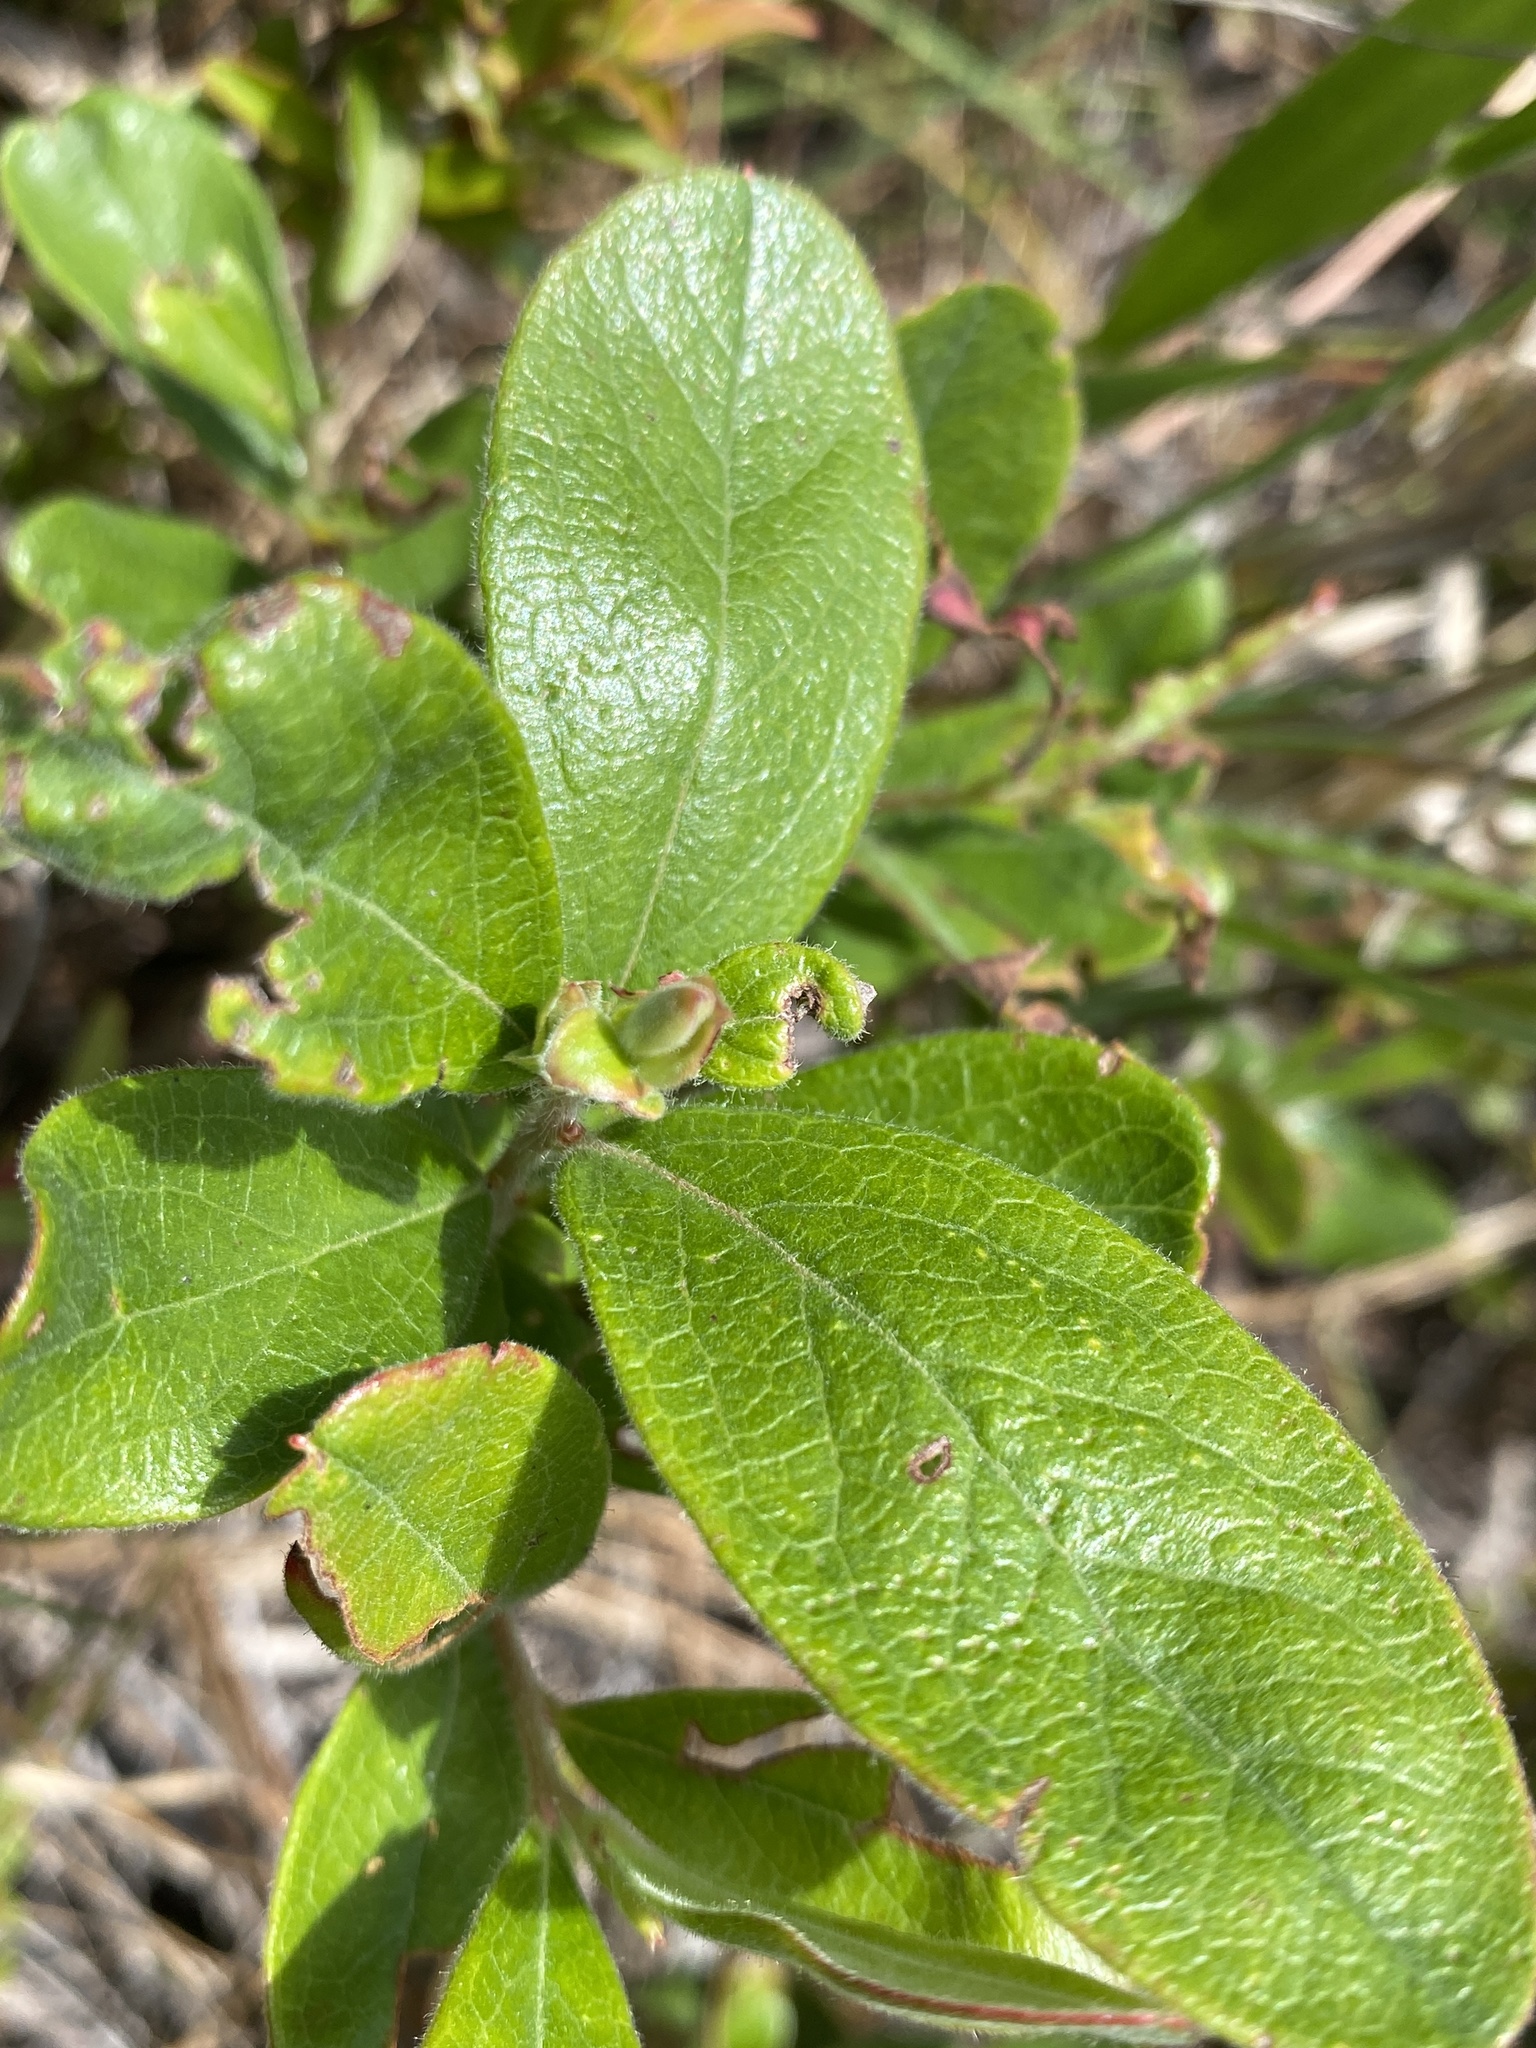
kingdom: Plantae
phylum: Tracheophyta
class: Magnoliopsida
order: Ericales
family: Ericaceae
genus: Gaylussacia
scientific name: Gaylussacia mosieri
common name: Hirsute huckleberry
